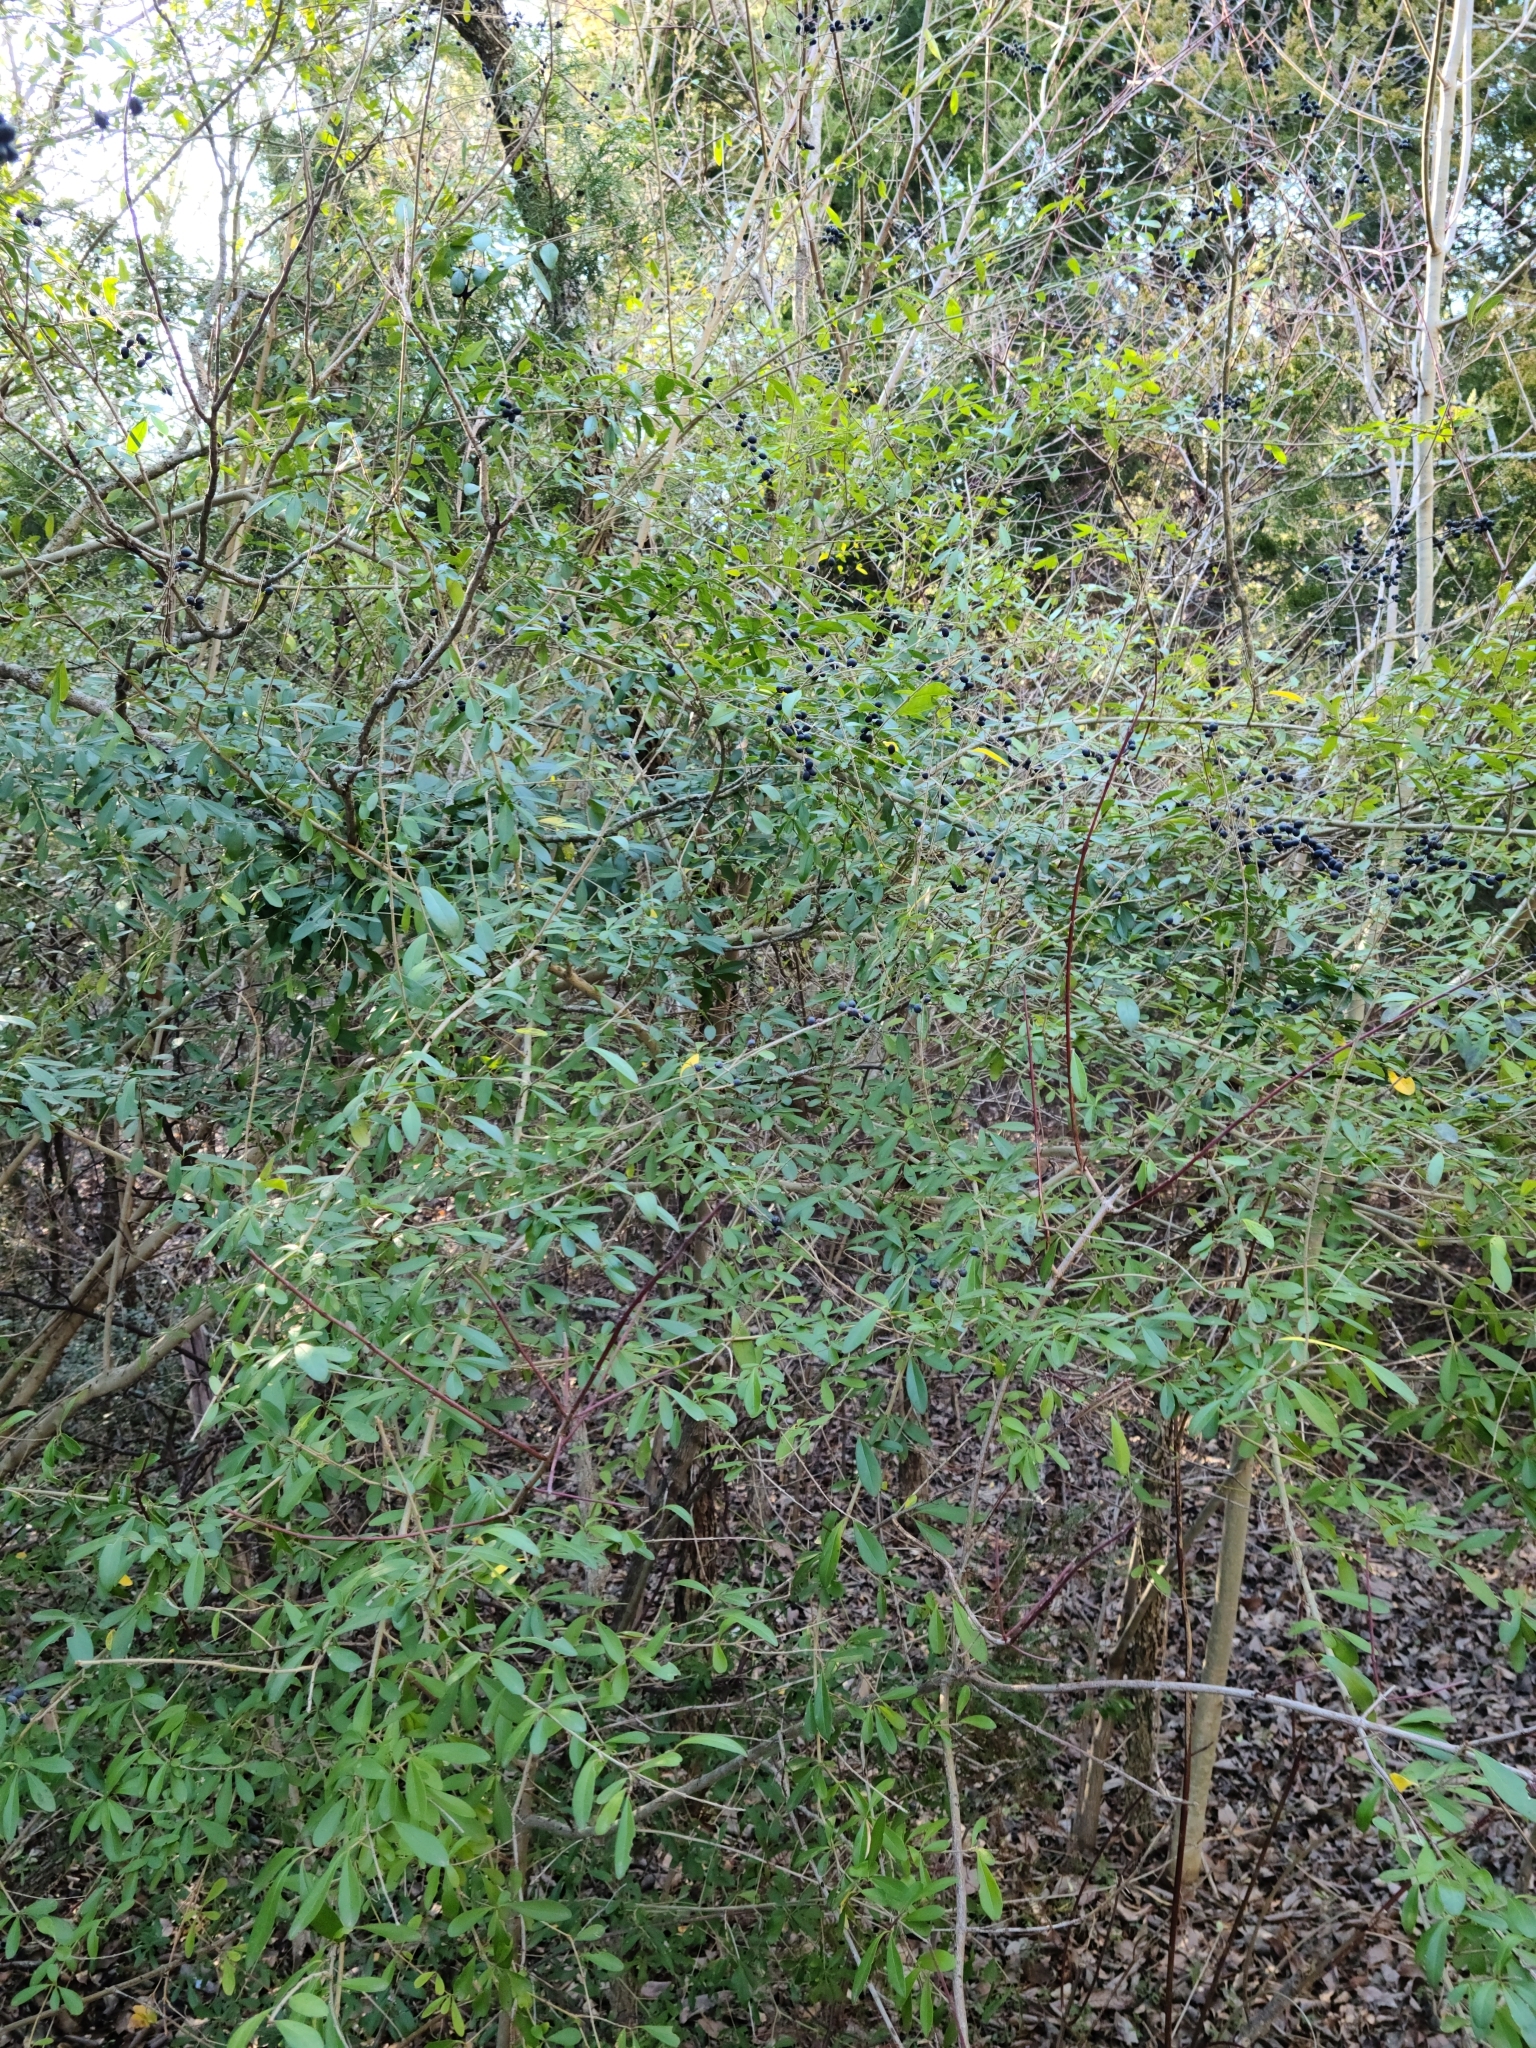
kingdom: Plantae
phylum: Tracheophyta
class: Magnoliopsida
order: Lamiales
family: Oleaceae
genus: Ligustrum
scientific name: Ligustrum quihoui
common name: Waxyleaf privet
